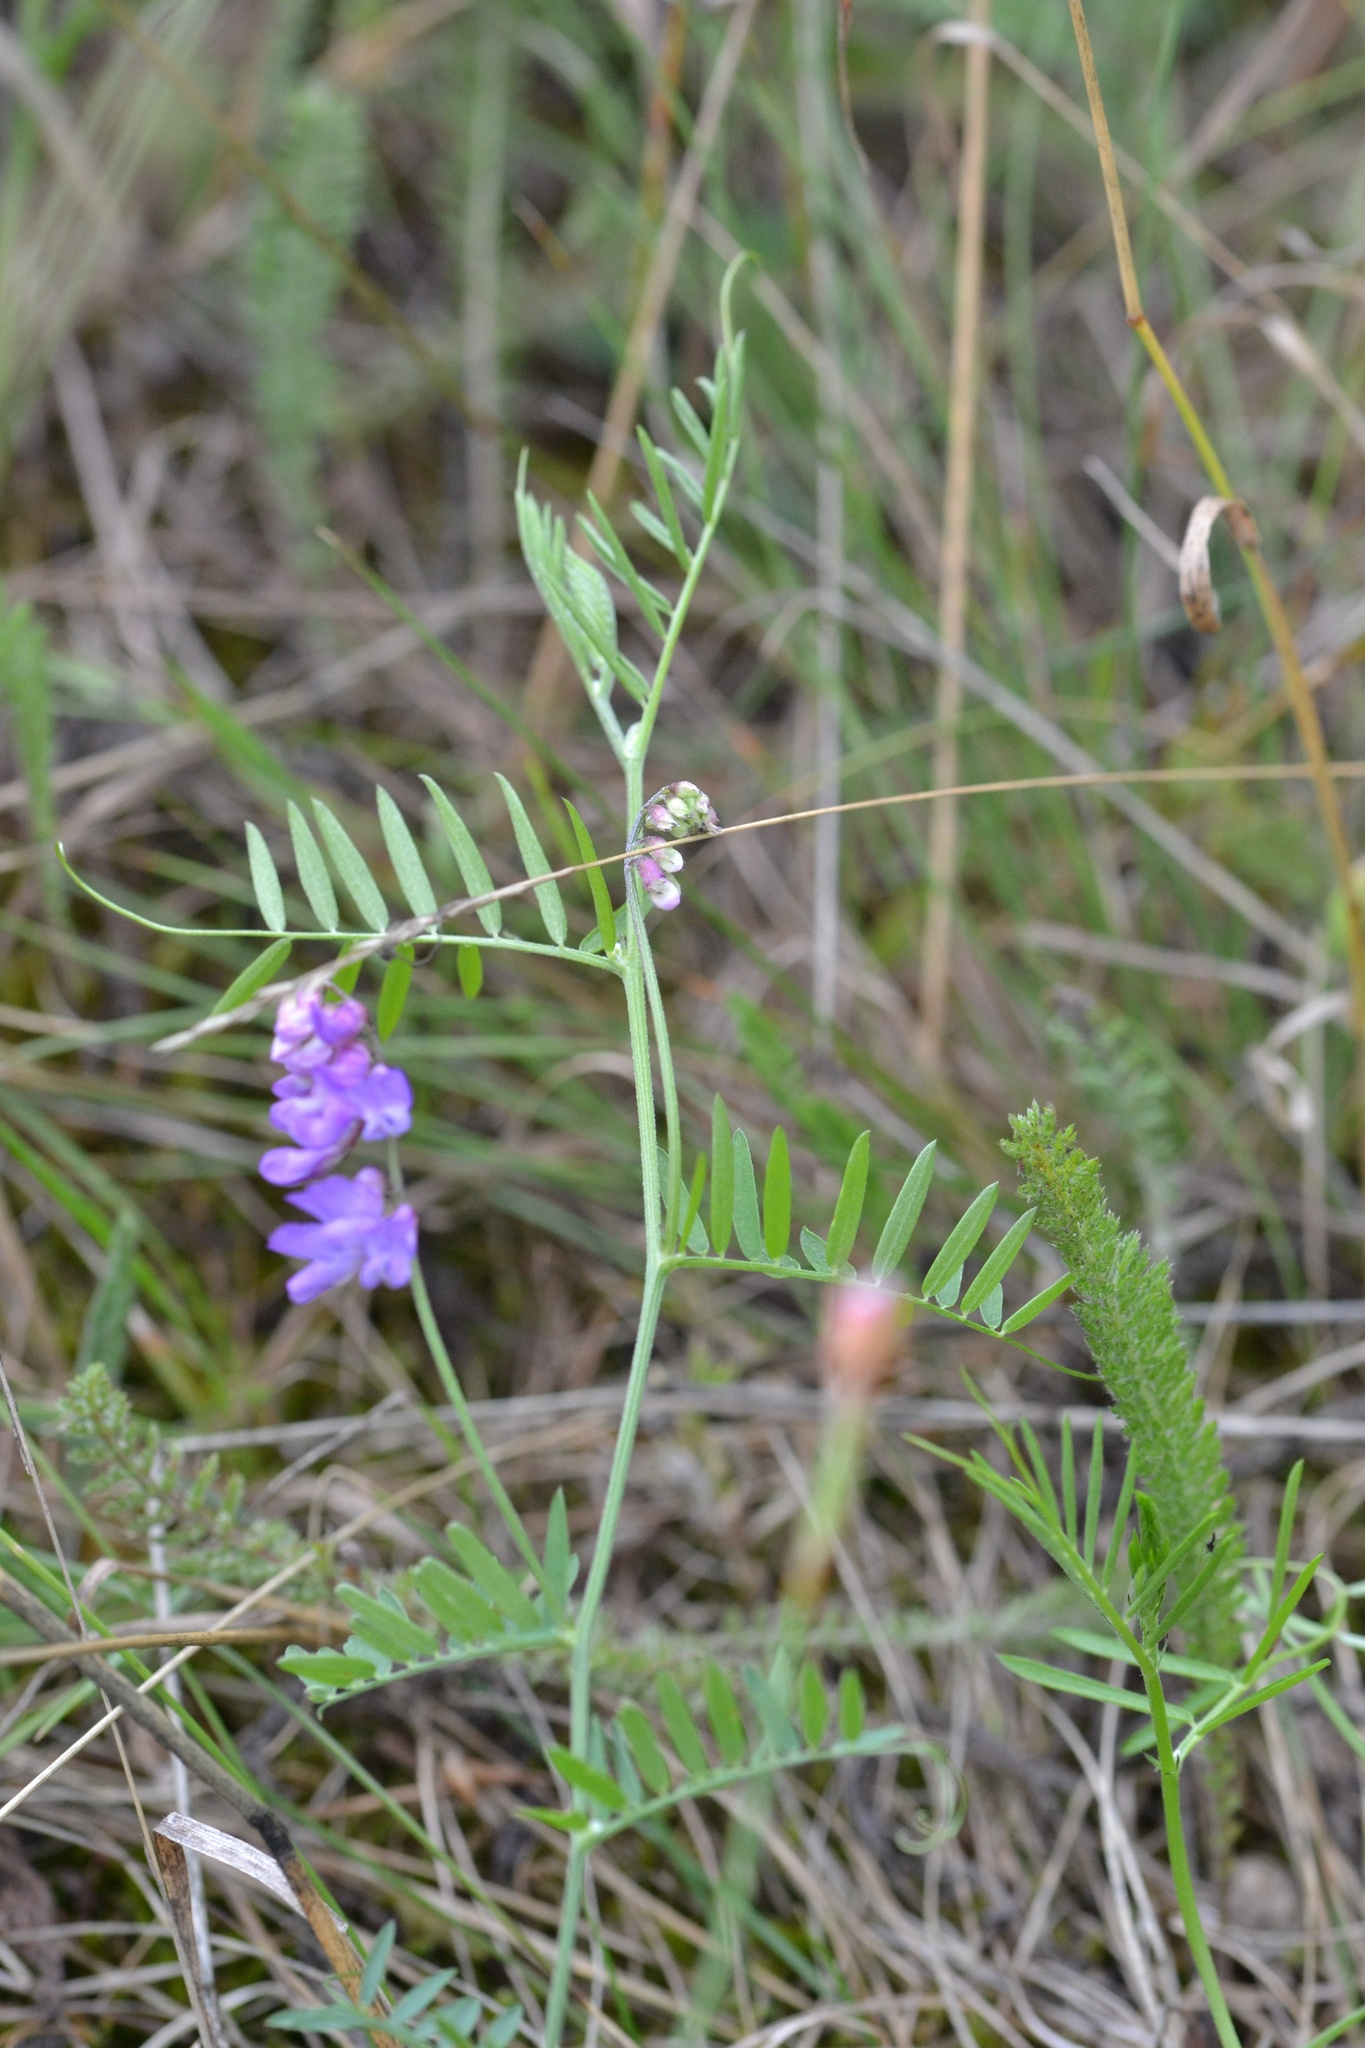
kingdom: Plantae
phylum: Tracheophyta
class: Magnoliopsida
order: Fabales
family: Fabaceae
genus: Vicia
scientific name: Vicia cracca
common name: Bird vetch
